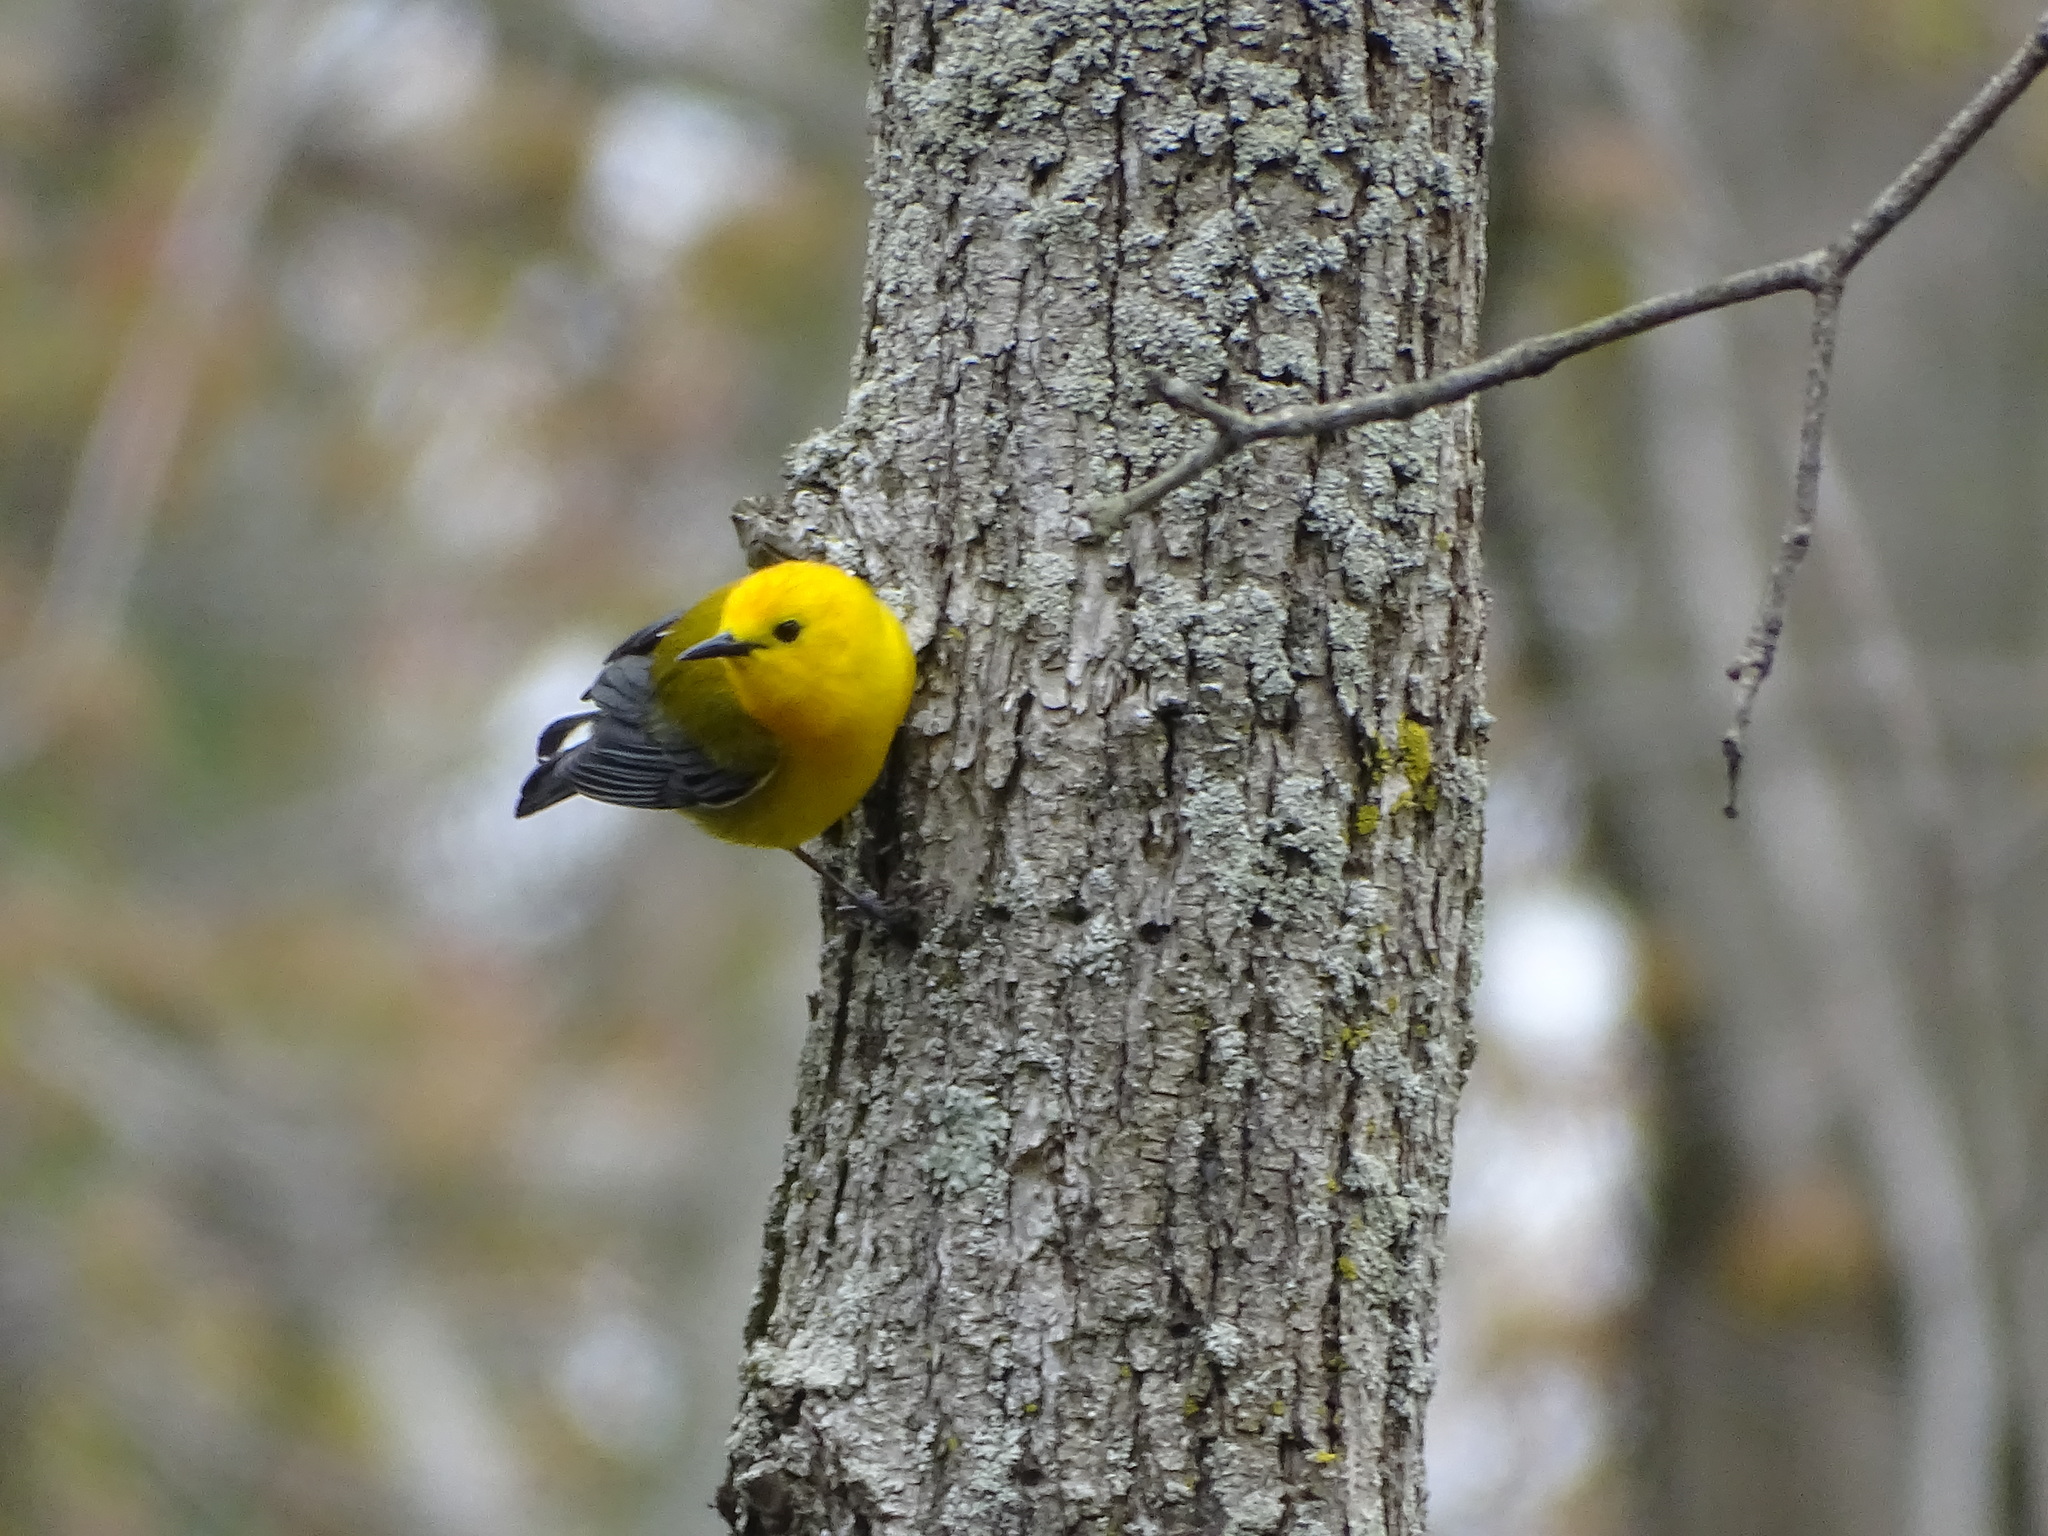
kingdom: Animalia
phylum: Chordata
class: Aves
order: Passeriformes
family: Parulidae
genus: Protonotaria
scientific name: Protonotaria citrea
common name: Prothonotary warbler
